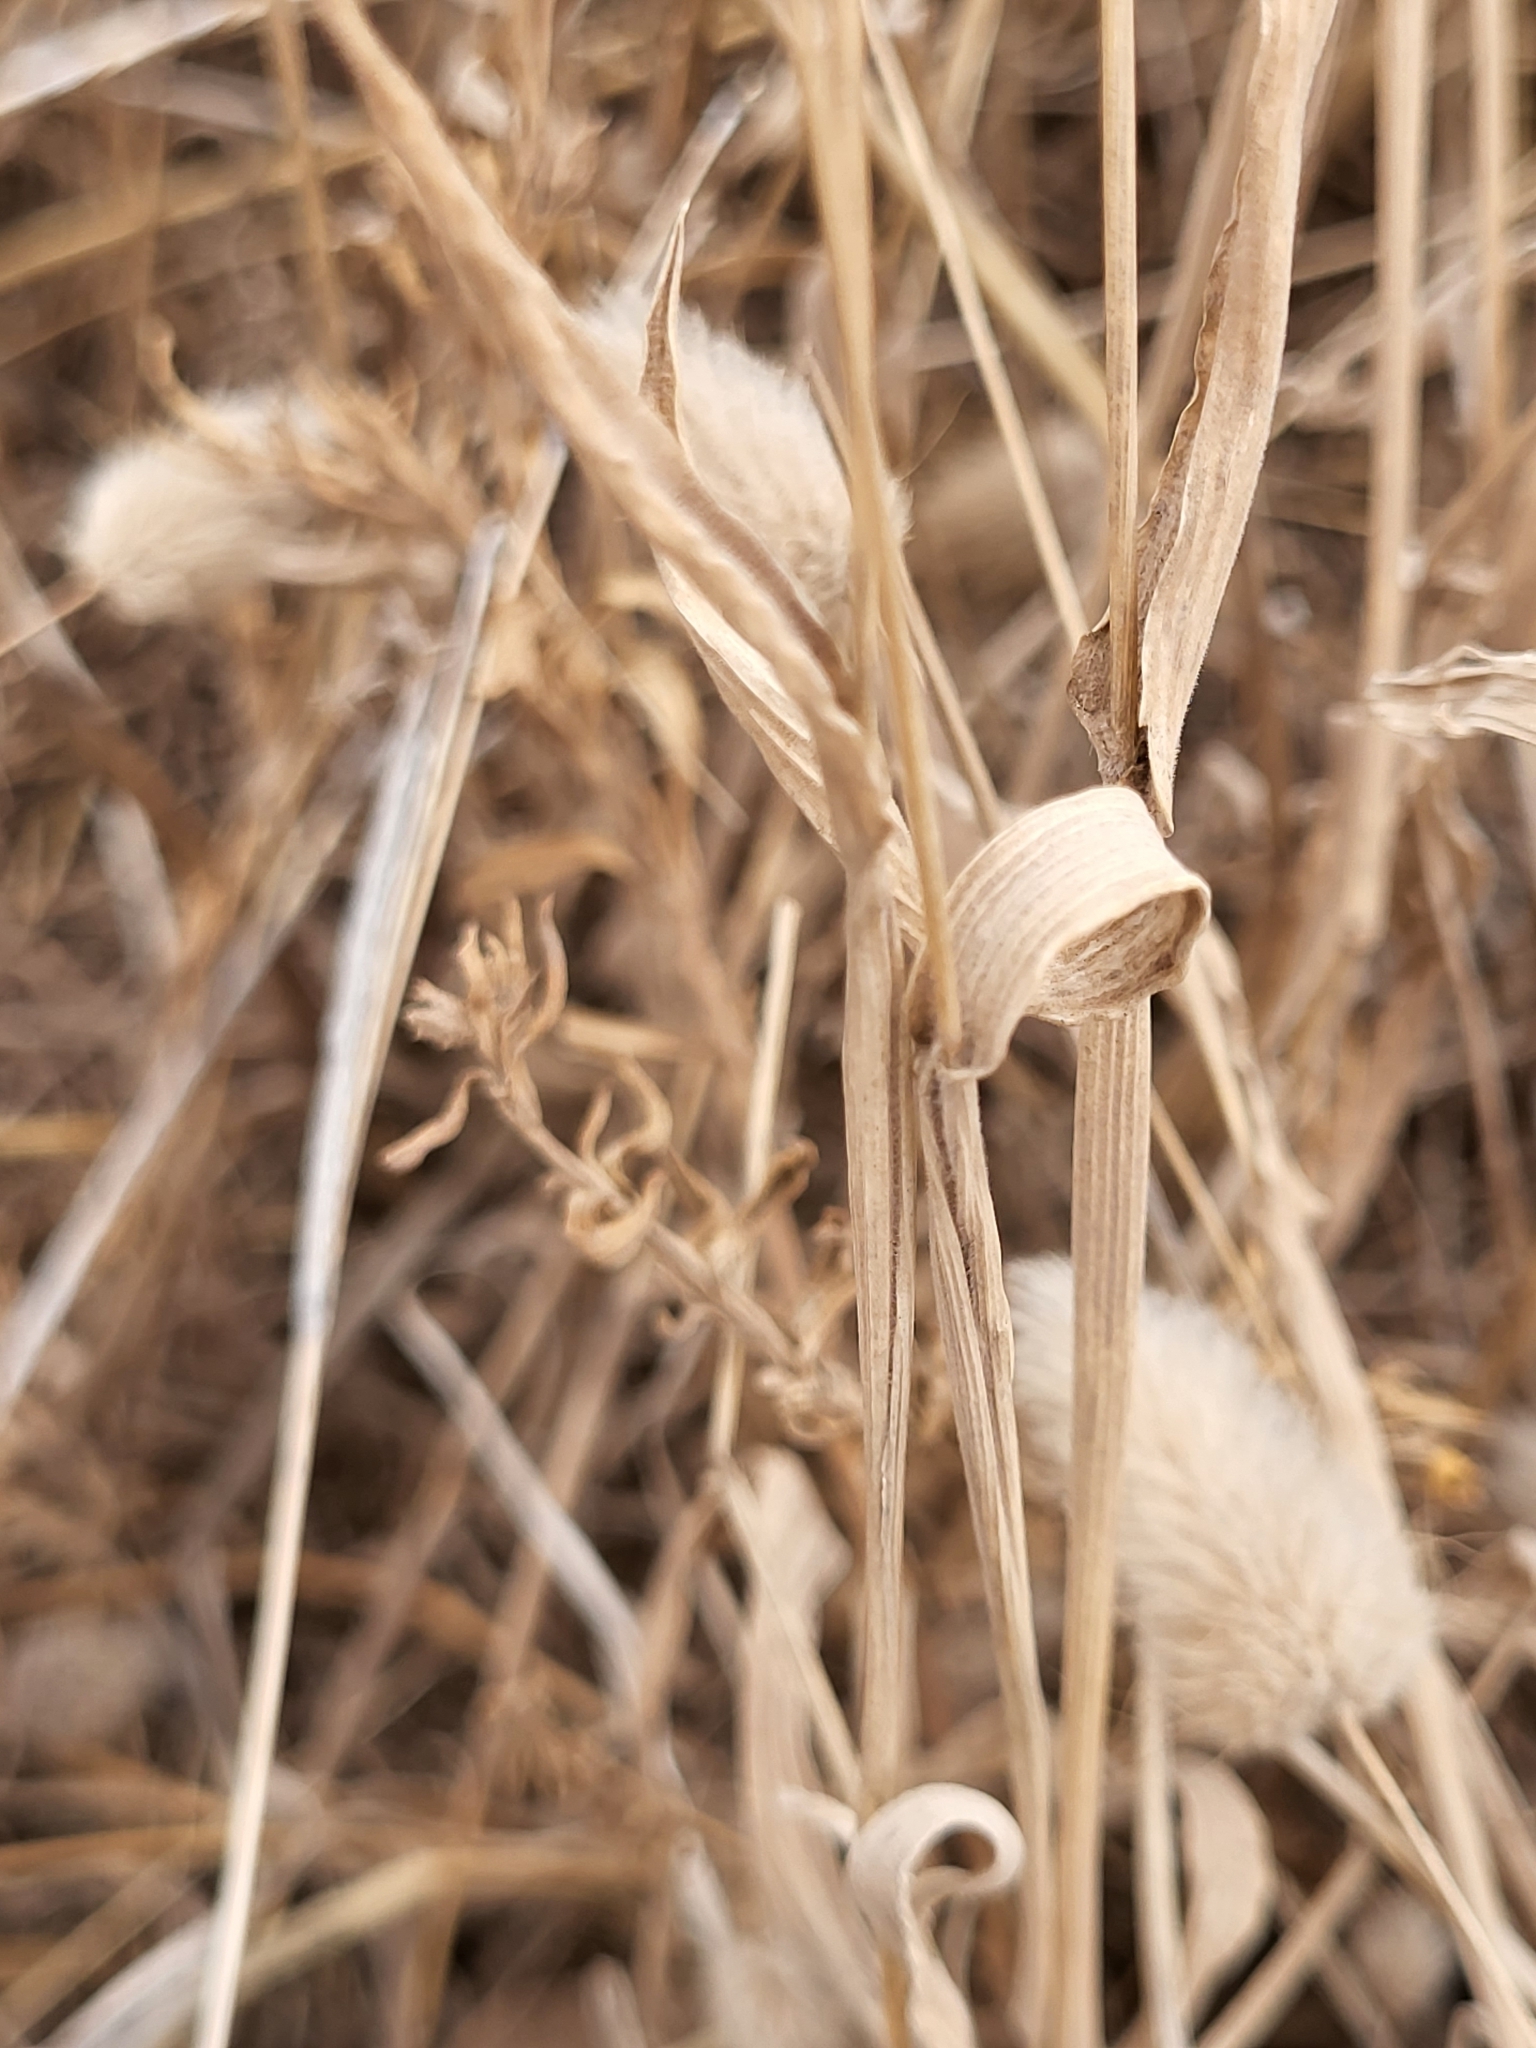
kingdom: Plantae
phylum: Tracheophyta
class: Liliopsida
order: Poales
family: Poaceae
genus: Lagurus
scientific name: Lagurus ovatus
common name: Hare's-tail
